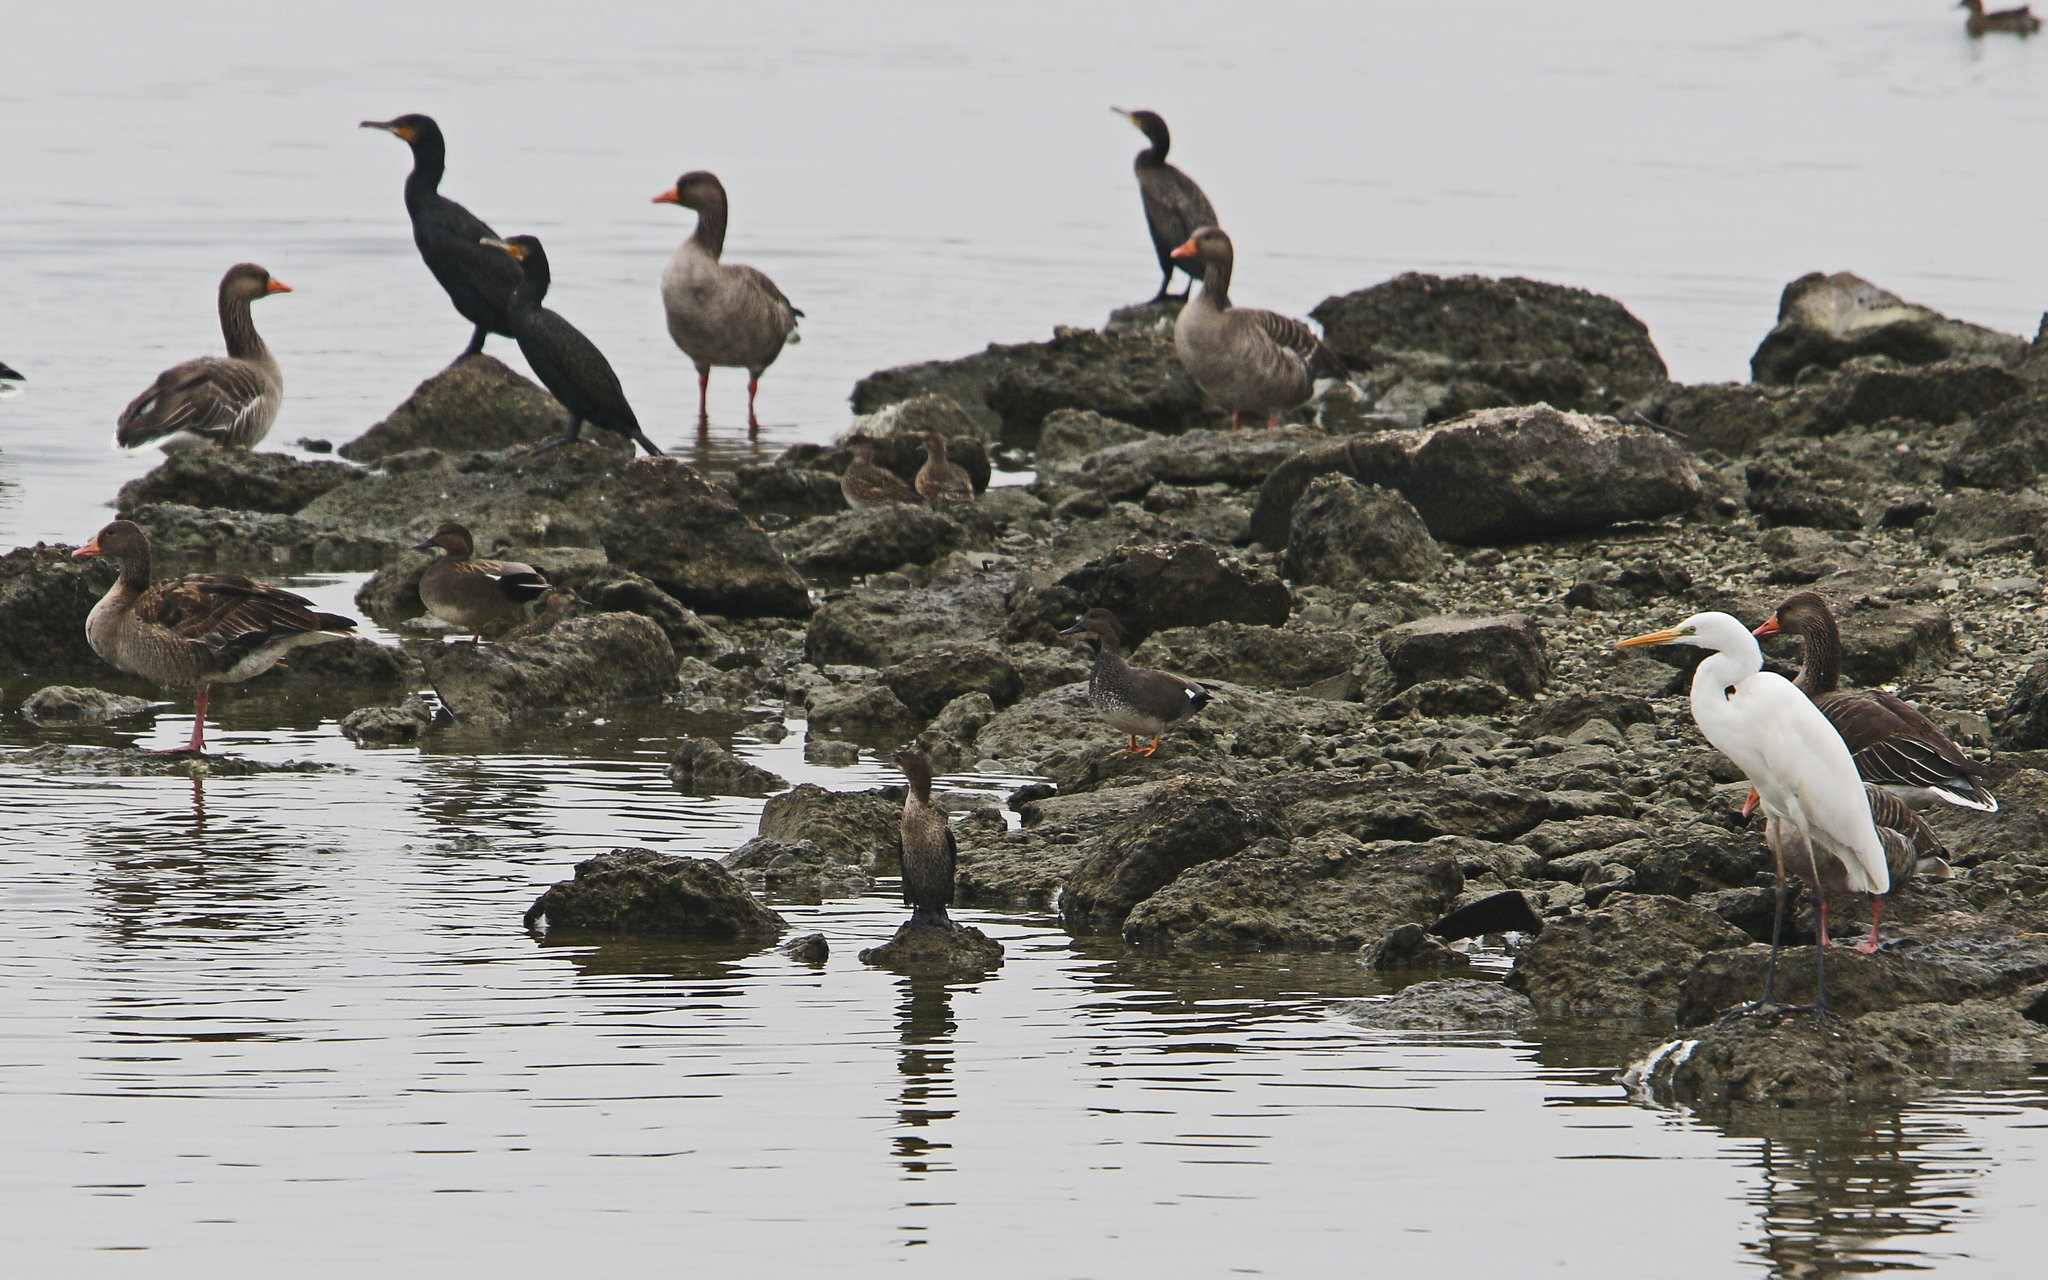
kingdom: Animalia
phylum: Chordata
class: Aves
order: Suliformes
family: Phalacrocoracidae
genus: Microcarbo
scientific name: Microcarbo pygmaeus
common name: Pygmy cormorant
